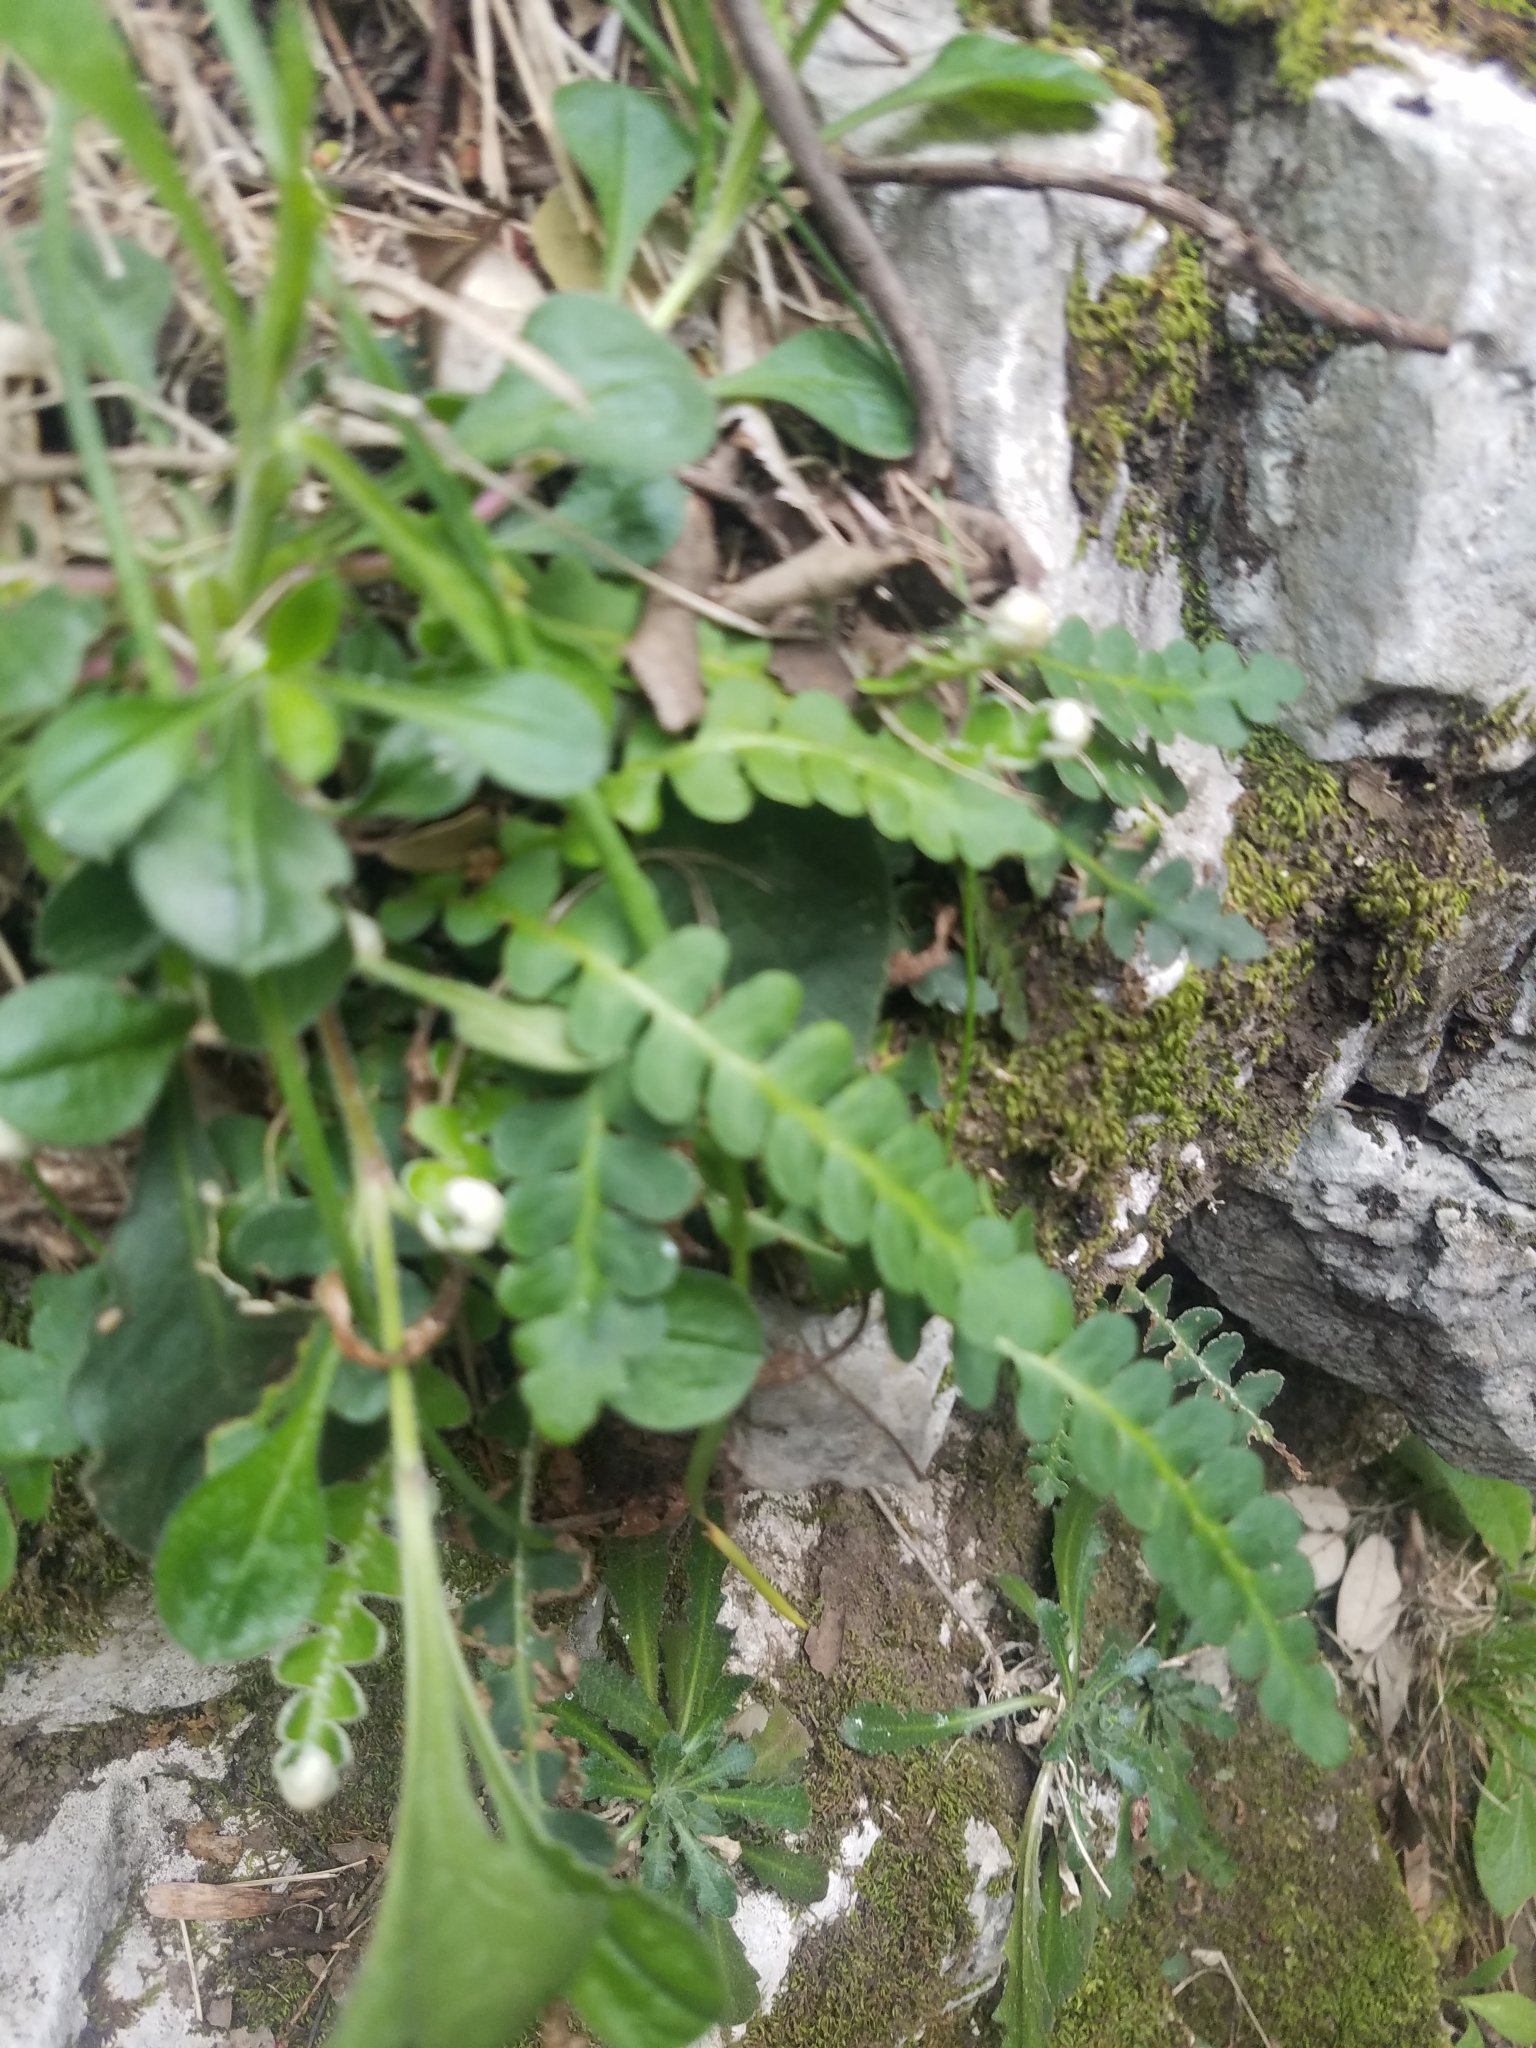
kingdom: Plantae
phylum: Tracheophyta
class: Polypodiopsida
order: Polypodiales
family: Aspleniaceae
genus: Asplenium
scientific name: Asplenium ceterach
